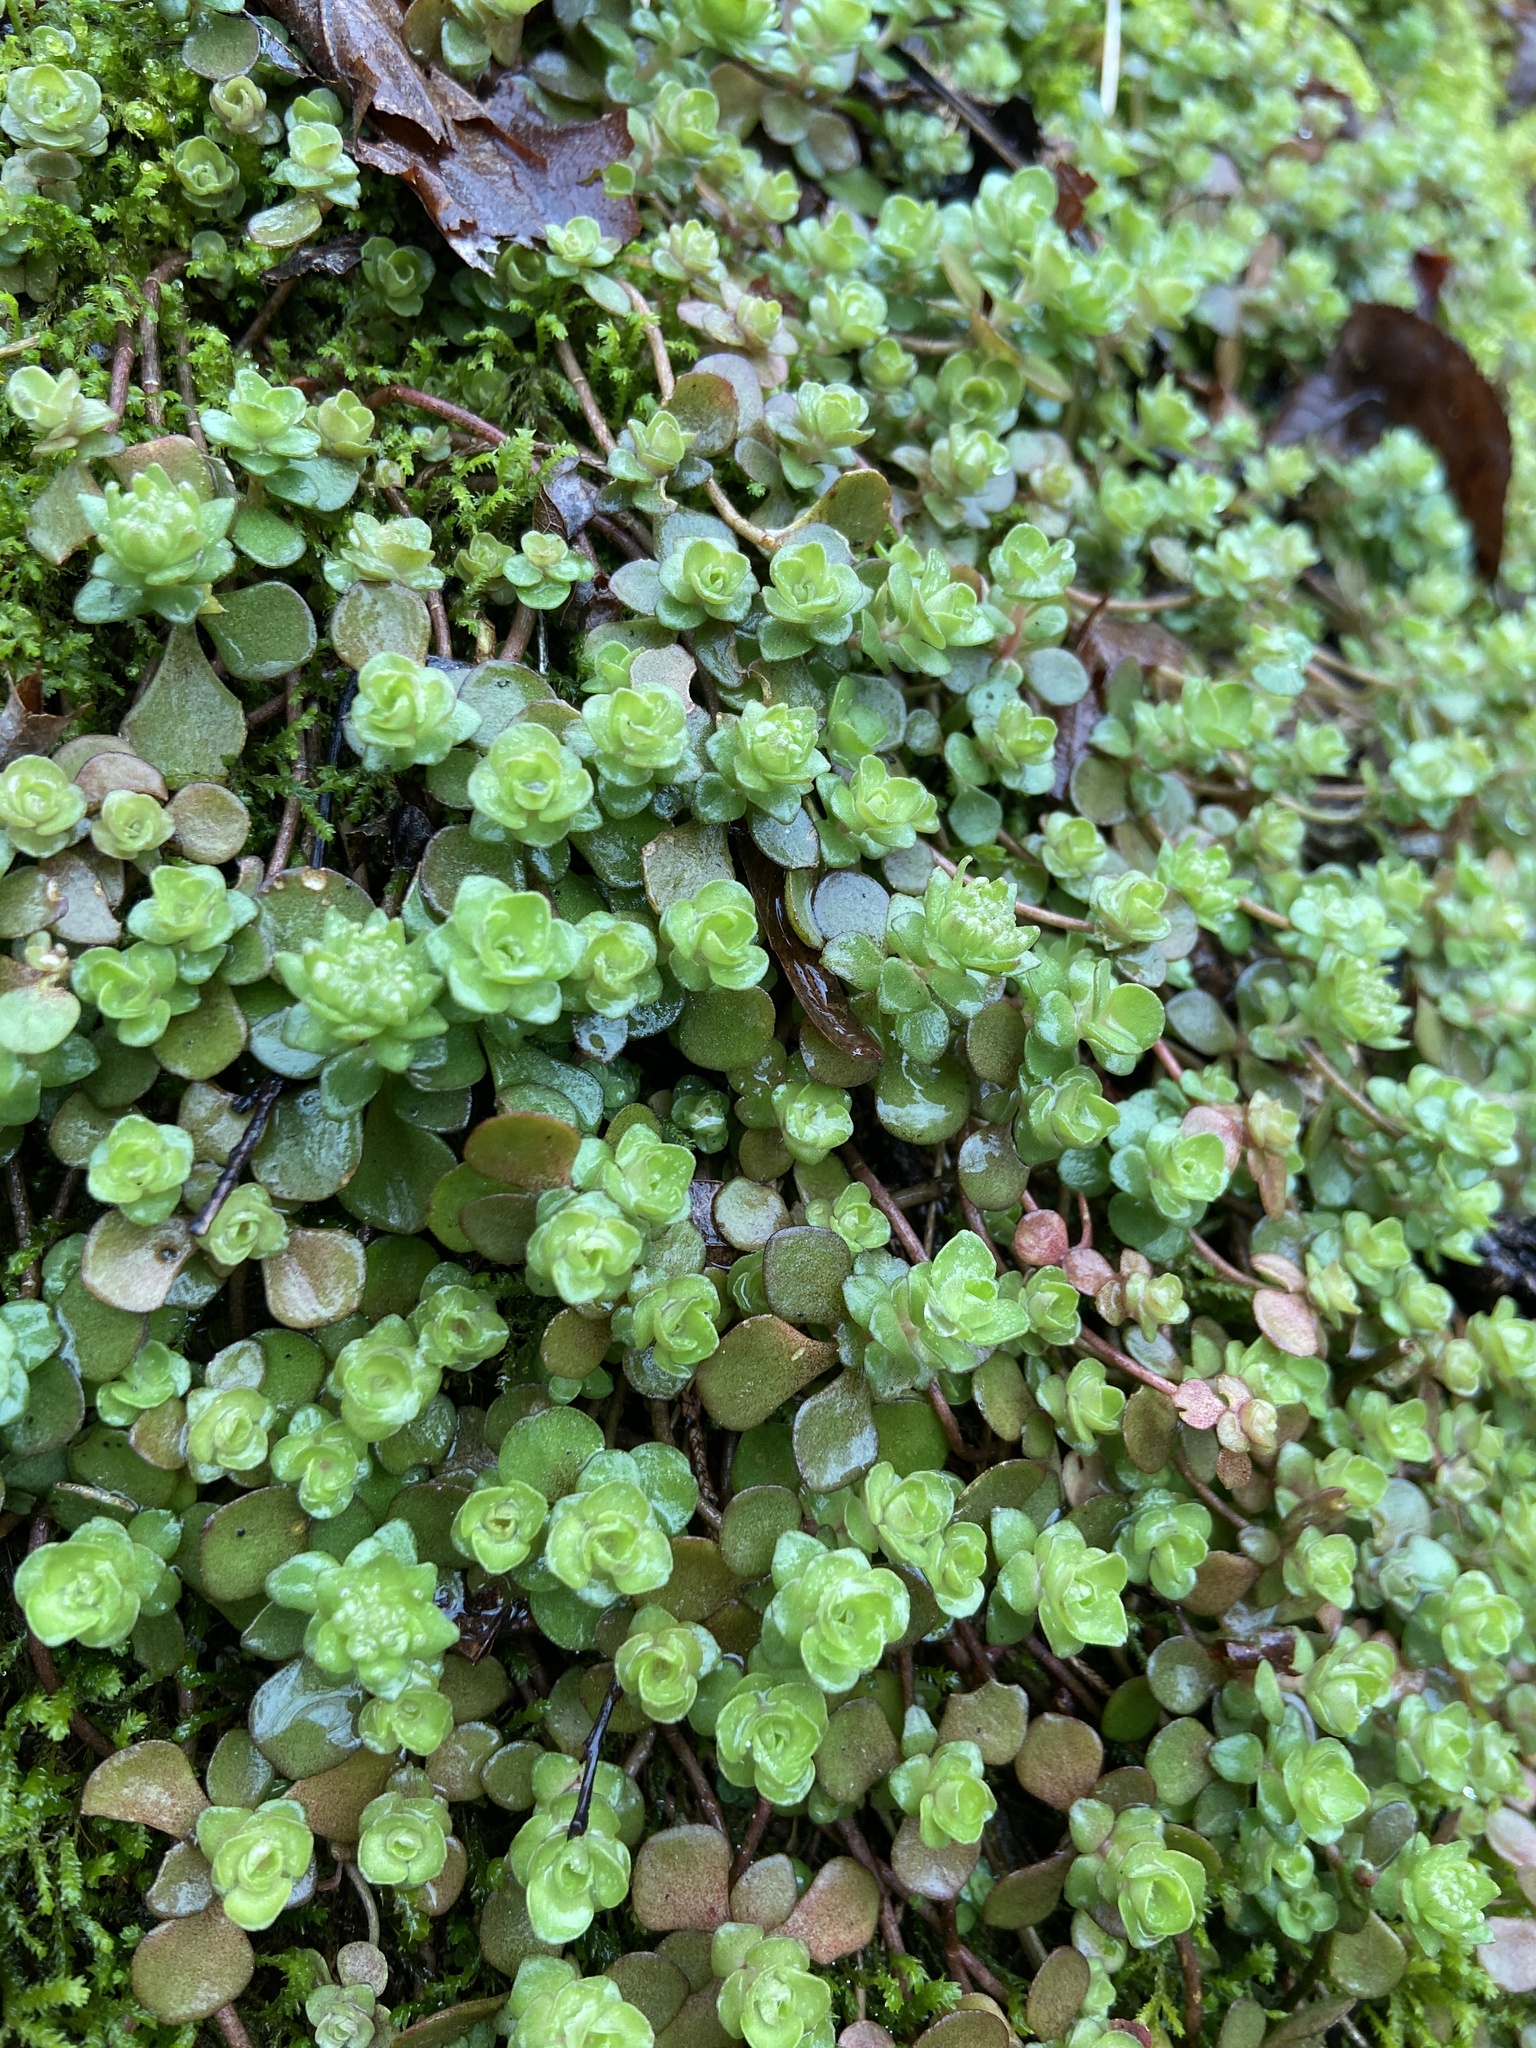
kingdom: Plantae
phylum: Tracheophyta
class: Magnoliopsida
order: Saxifragales
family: Crassulaceae
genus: Sedum
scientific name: Sedum ternatum
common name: Wild stonecrop
